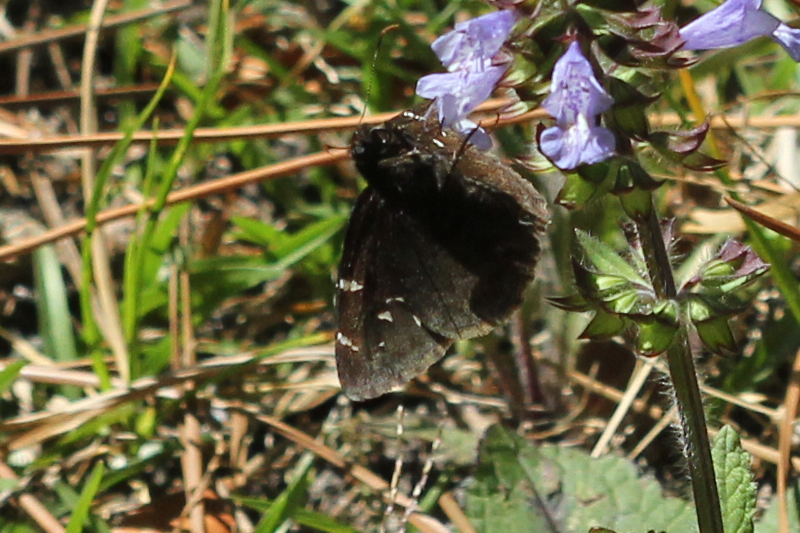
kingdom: Animalia
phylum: Arthropoda
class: Insecta
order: Lepidoptera
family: Hesperiidae
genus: Thorybes
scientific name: Thorybes pylades
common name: Northern cloudywing
